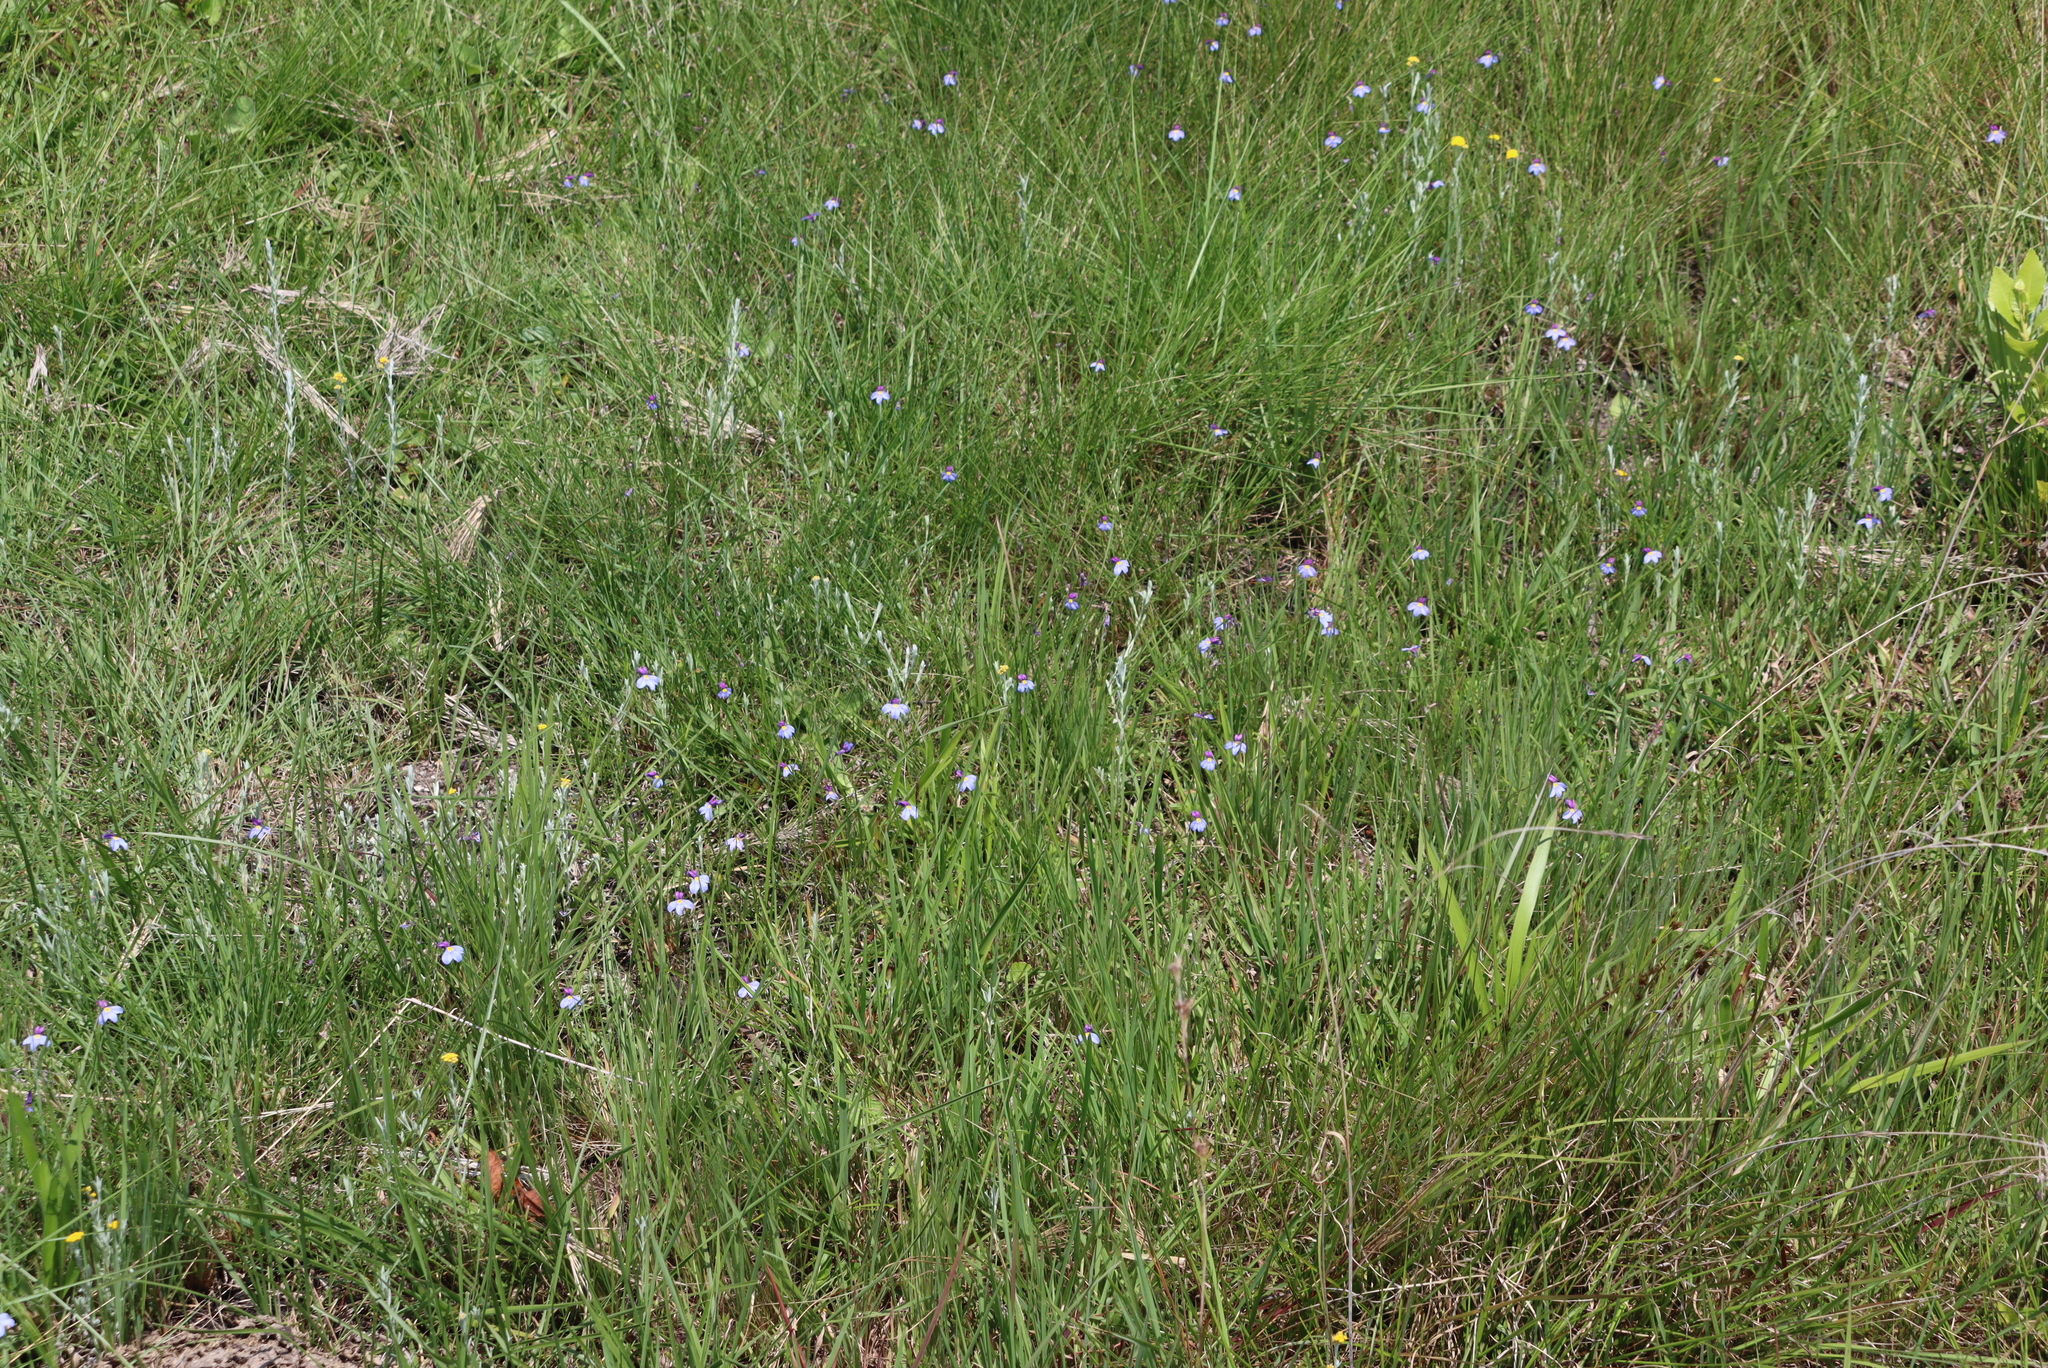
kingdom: Plantae
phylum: Tracheophyta
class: Magnoliopsida
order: Asterales
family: Campanulaceae
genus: Monopsis
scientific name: Monopsis decipiens
